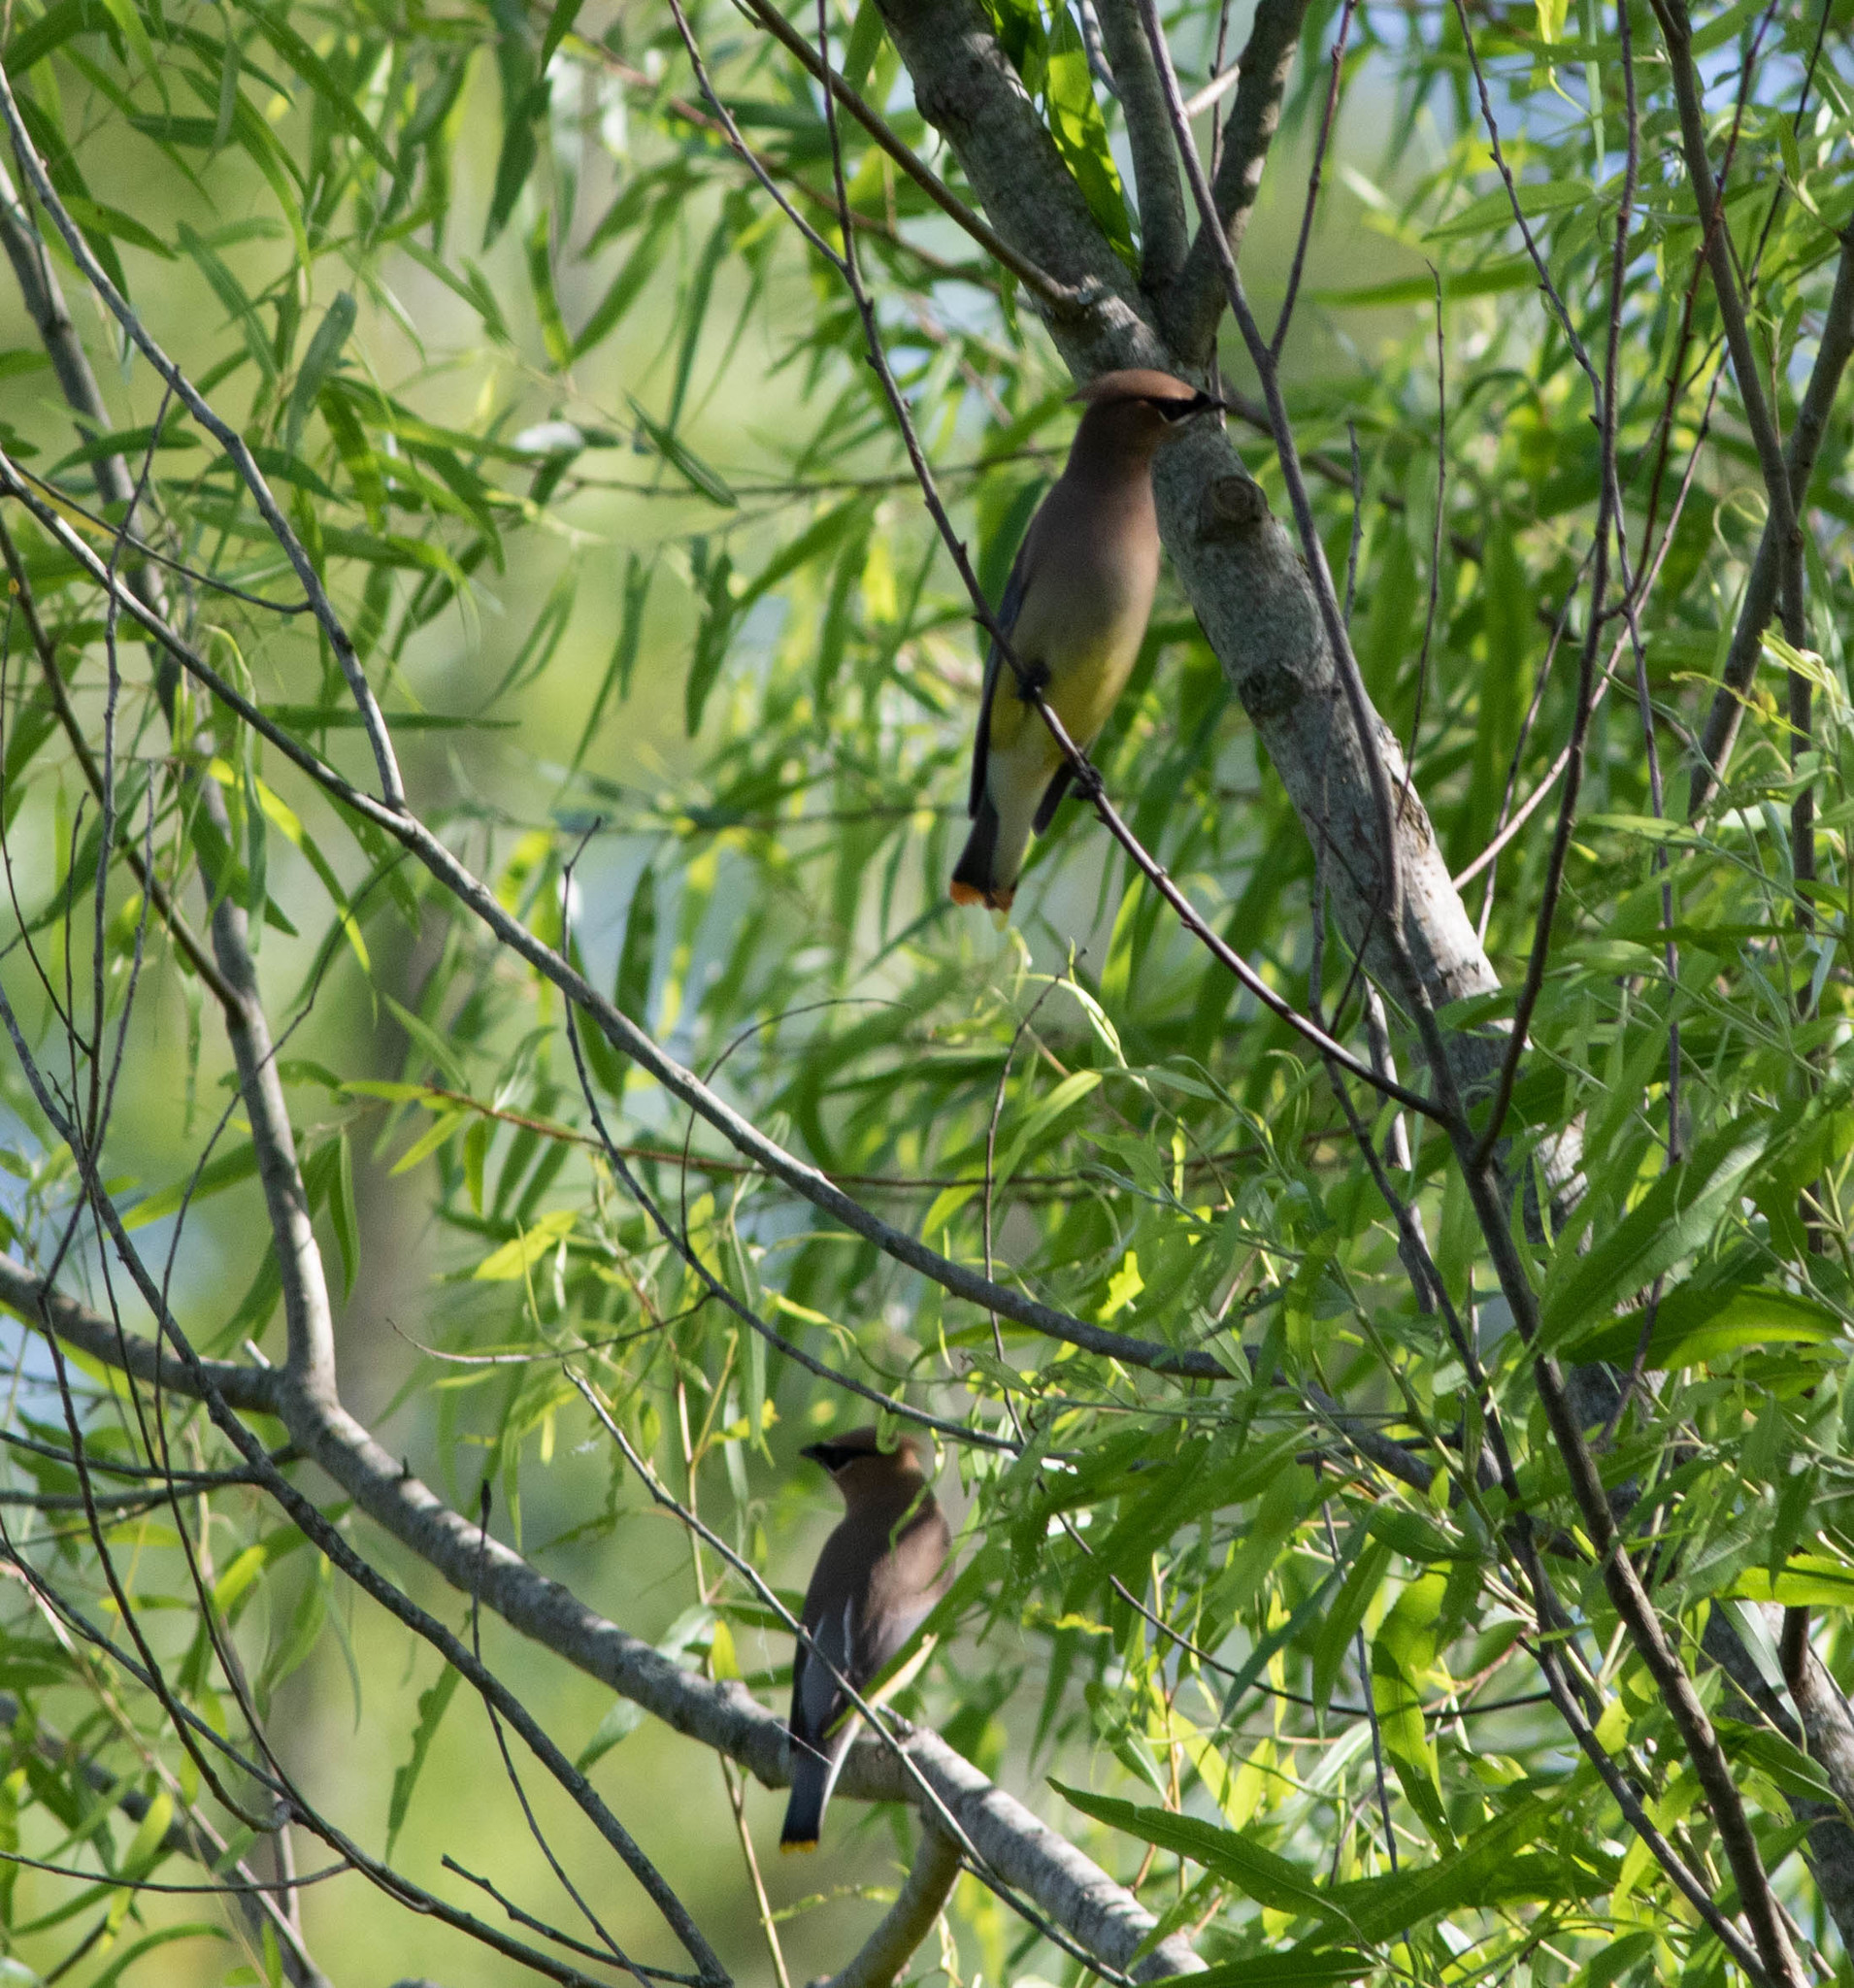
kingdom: Animalia
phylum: Chordata
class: Aves
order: Passeriformes
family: Bombycillidae
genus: Bombycilla
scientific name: Bombycilla cedrorum
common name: Cedar waxwing
